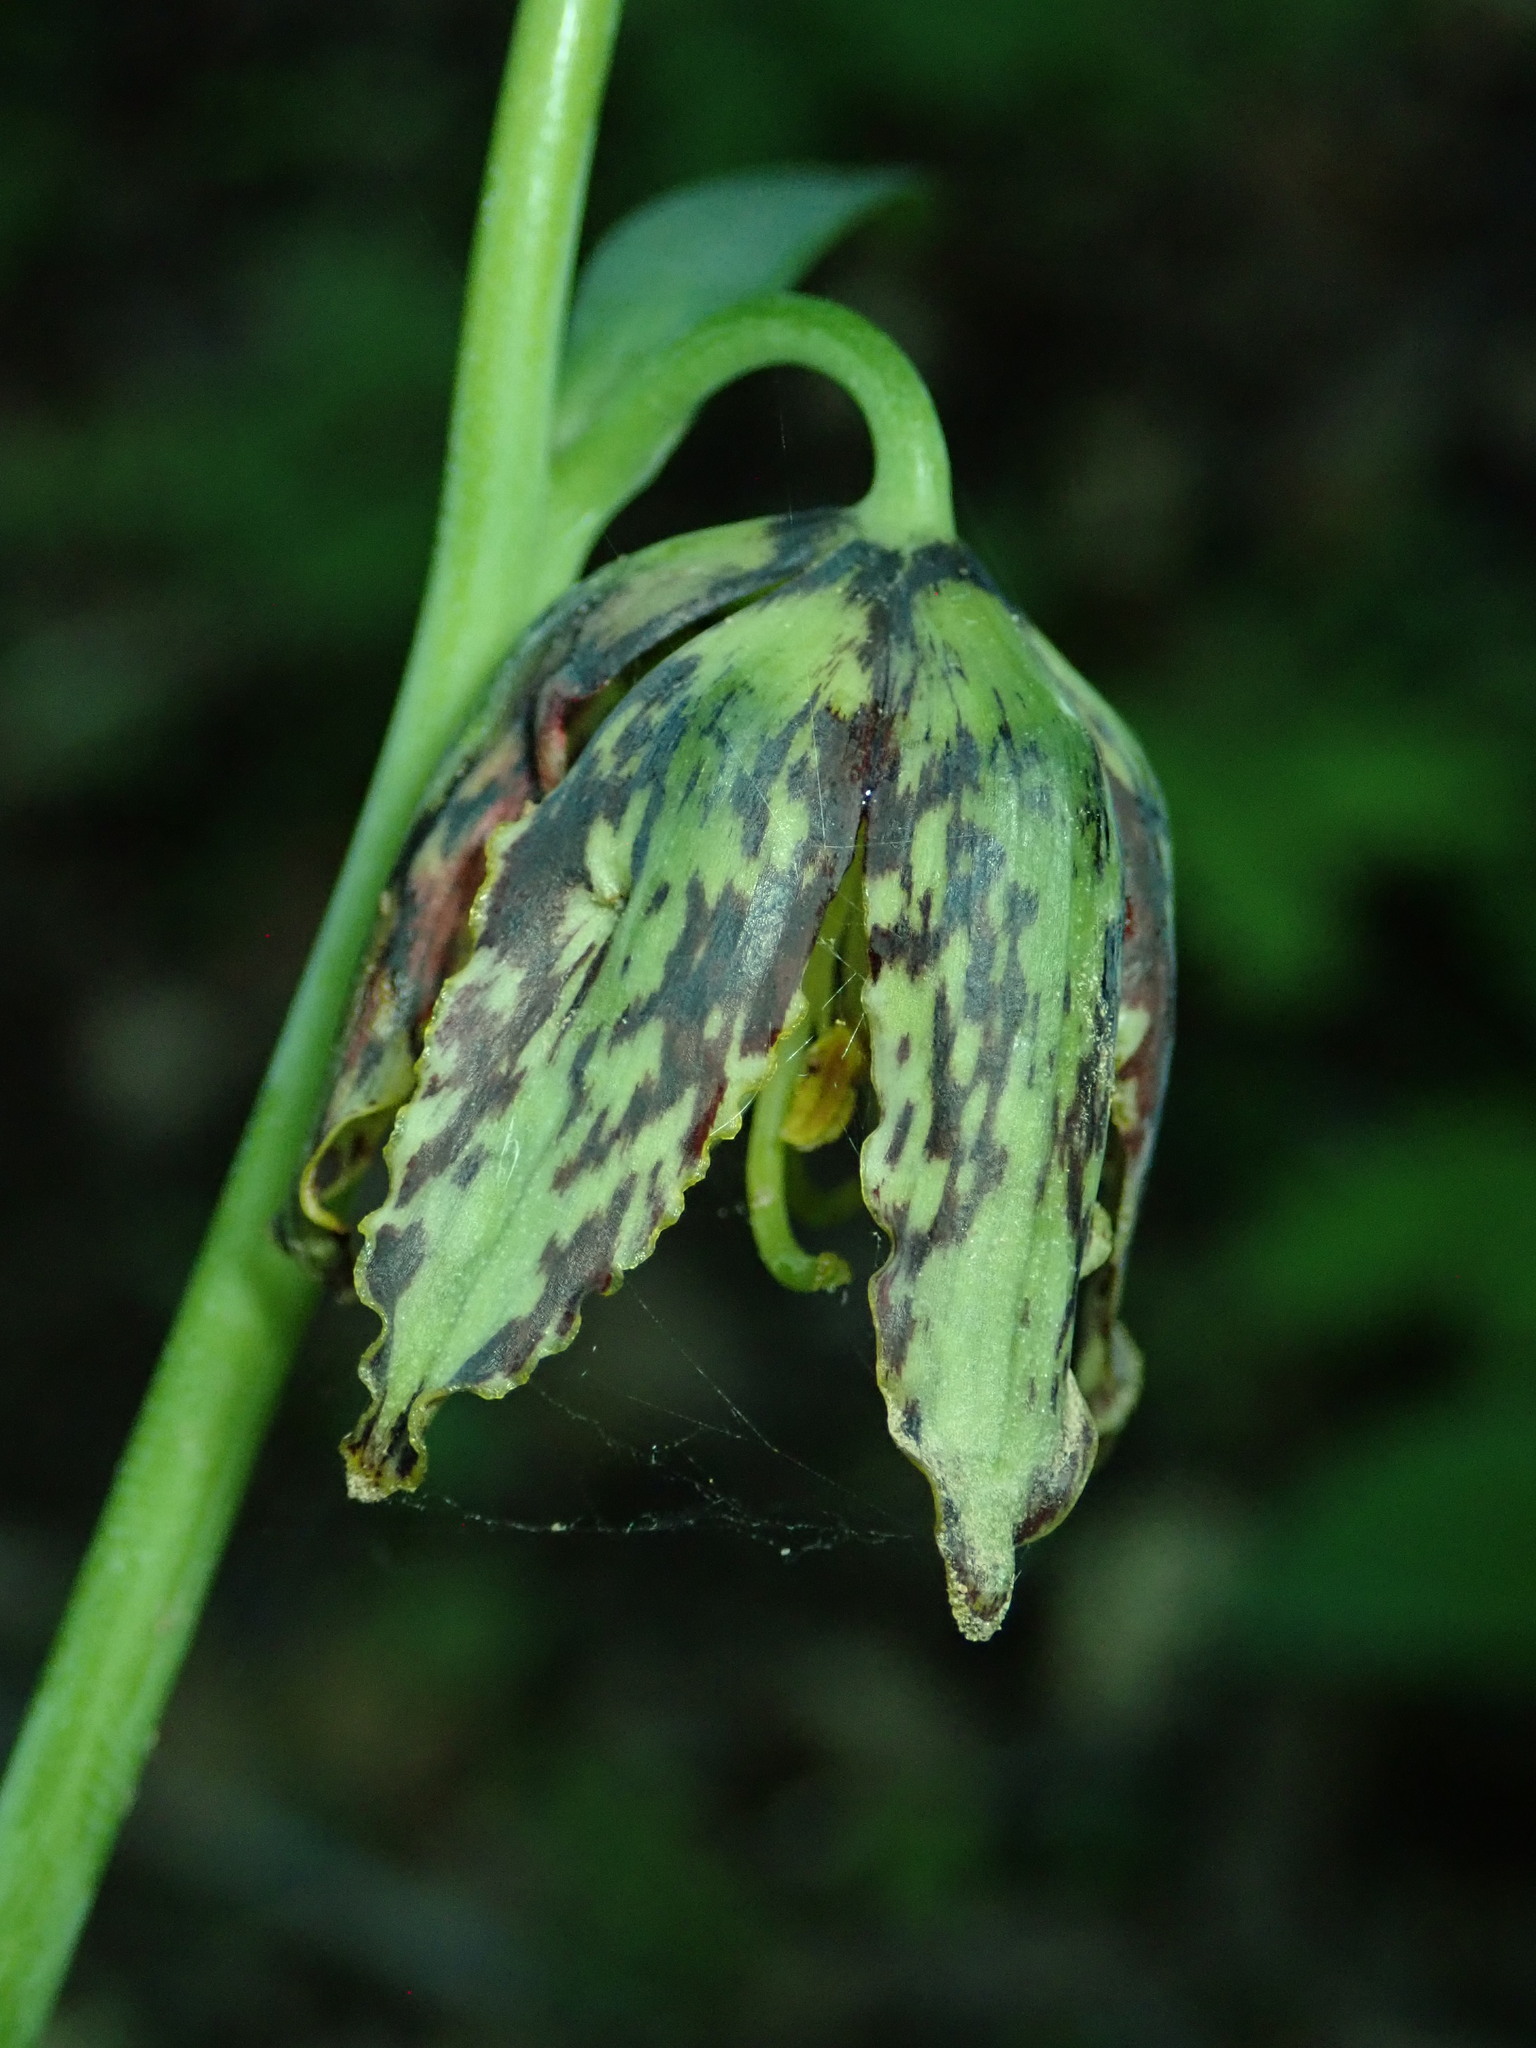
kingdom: Plantae
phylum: Tracheophyta
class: Liliopsida
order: Liliales
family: Liliaceae
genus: Fritillaria
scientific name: Fritillaria affinis
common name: Ojai fritillary
